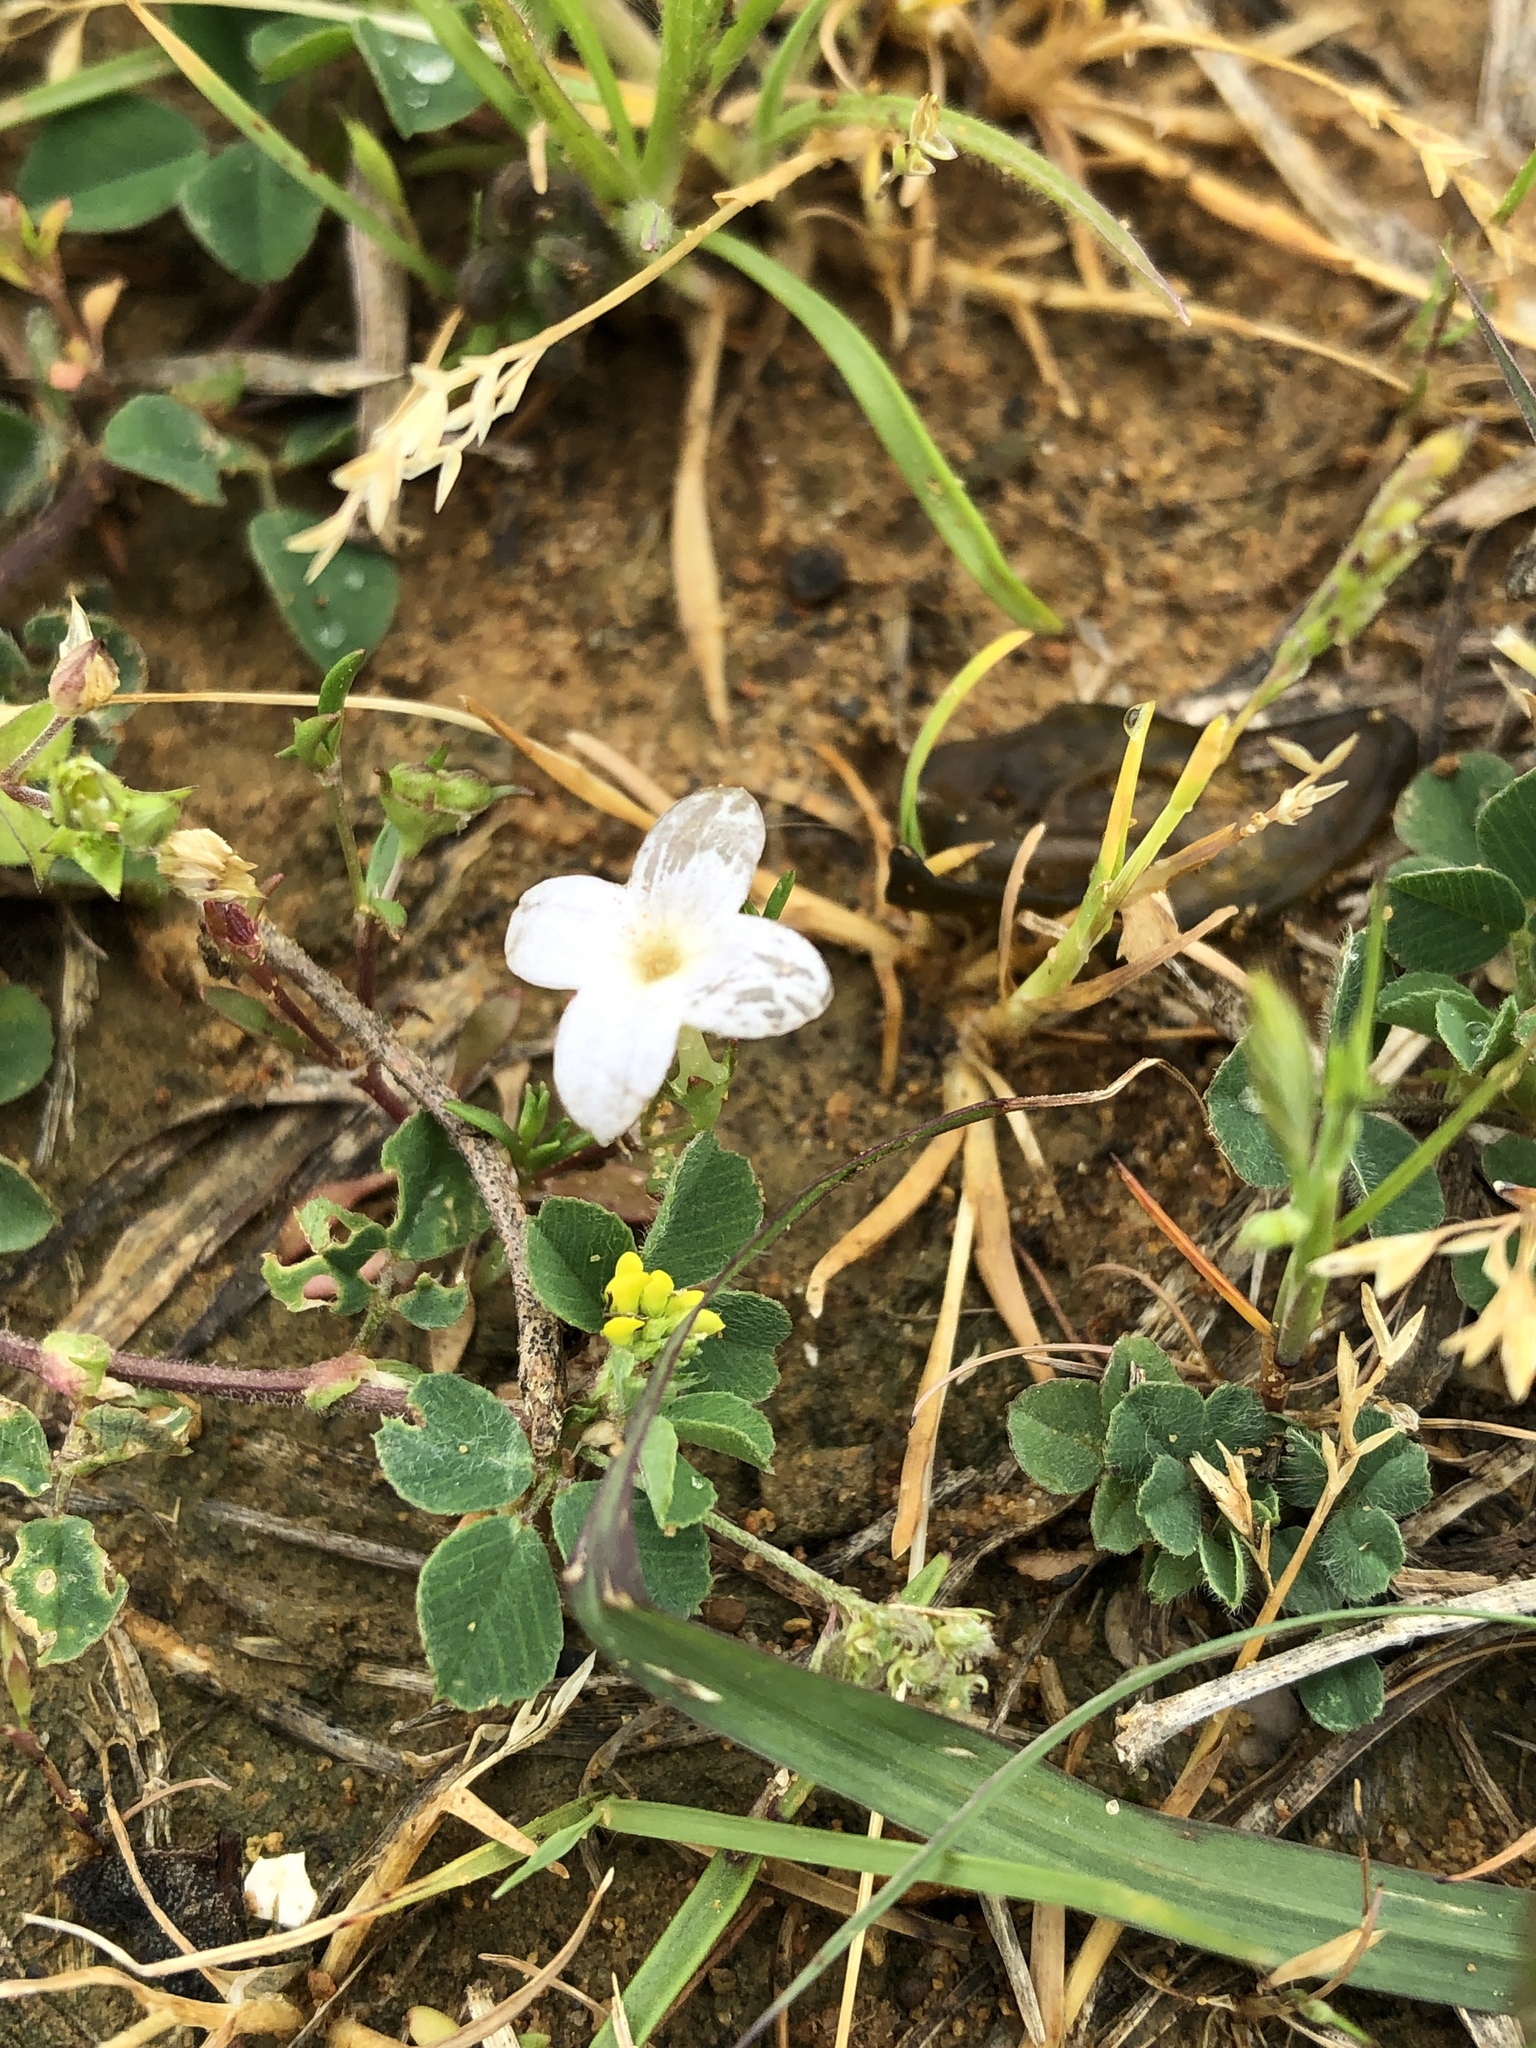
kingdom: Plantae
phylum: Tracheophyta
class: Magnoliopsida
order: Gentianales
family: Rubiaceae
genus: Houstonia
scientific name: Houstonia rosea
